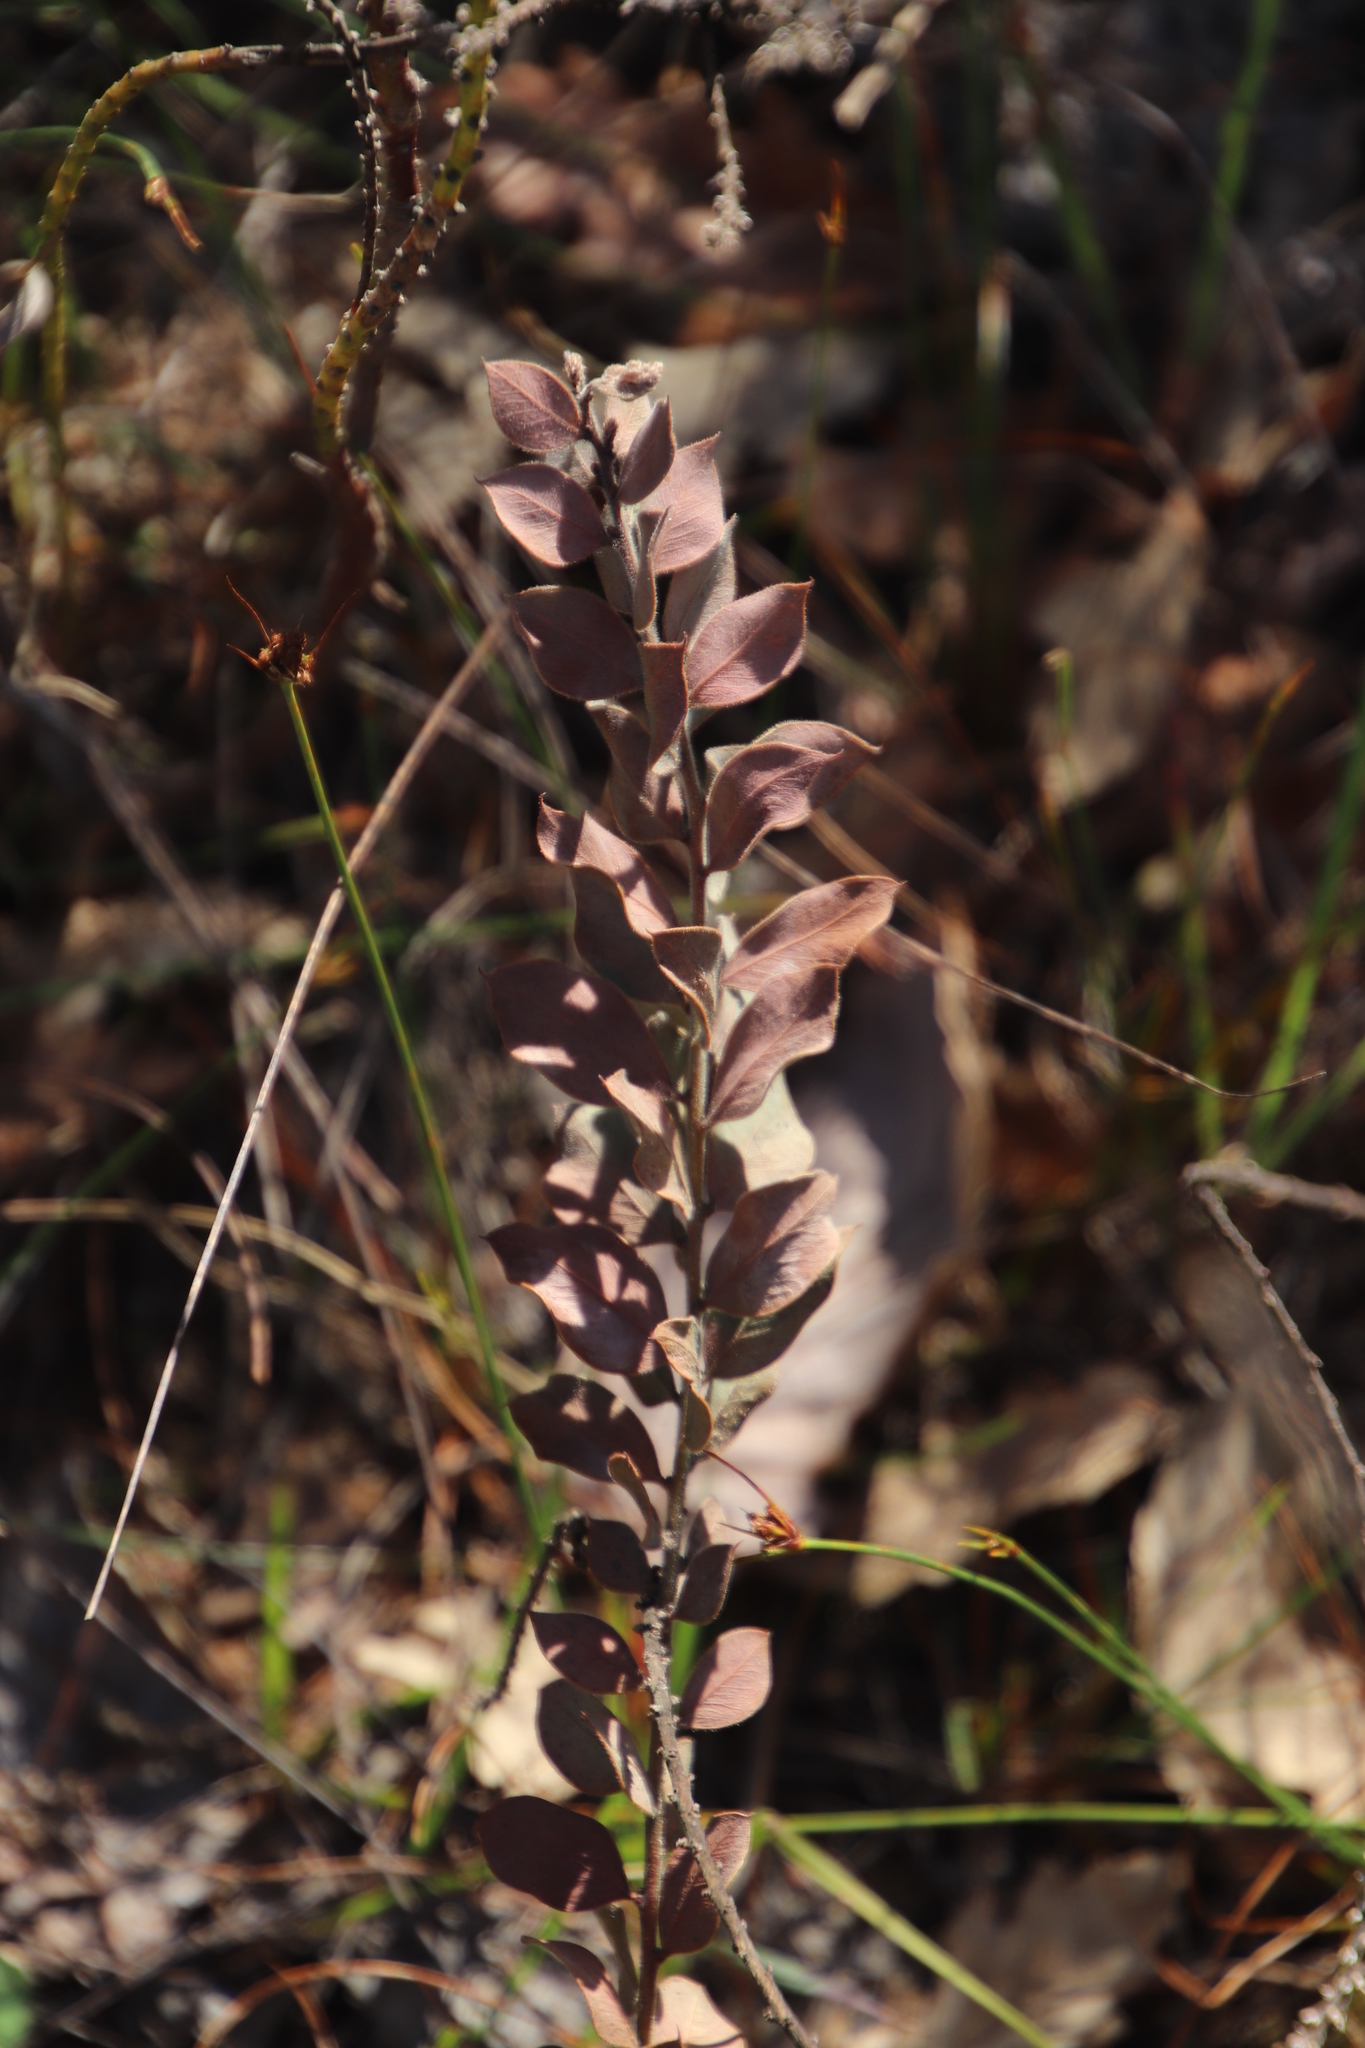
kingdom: Plantae
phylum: Tracheophyta
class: Magnoliopsida
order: Fabales
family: Fabaceae
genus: Acacia
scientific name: Acacia piligera
